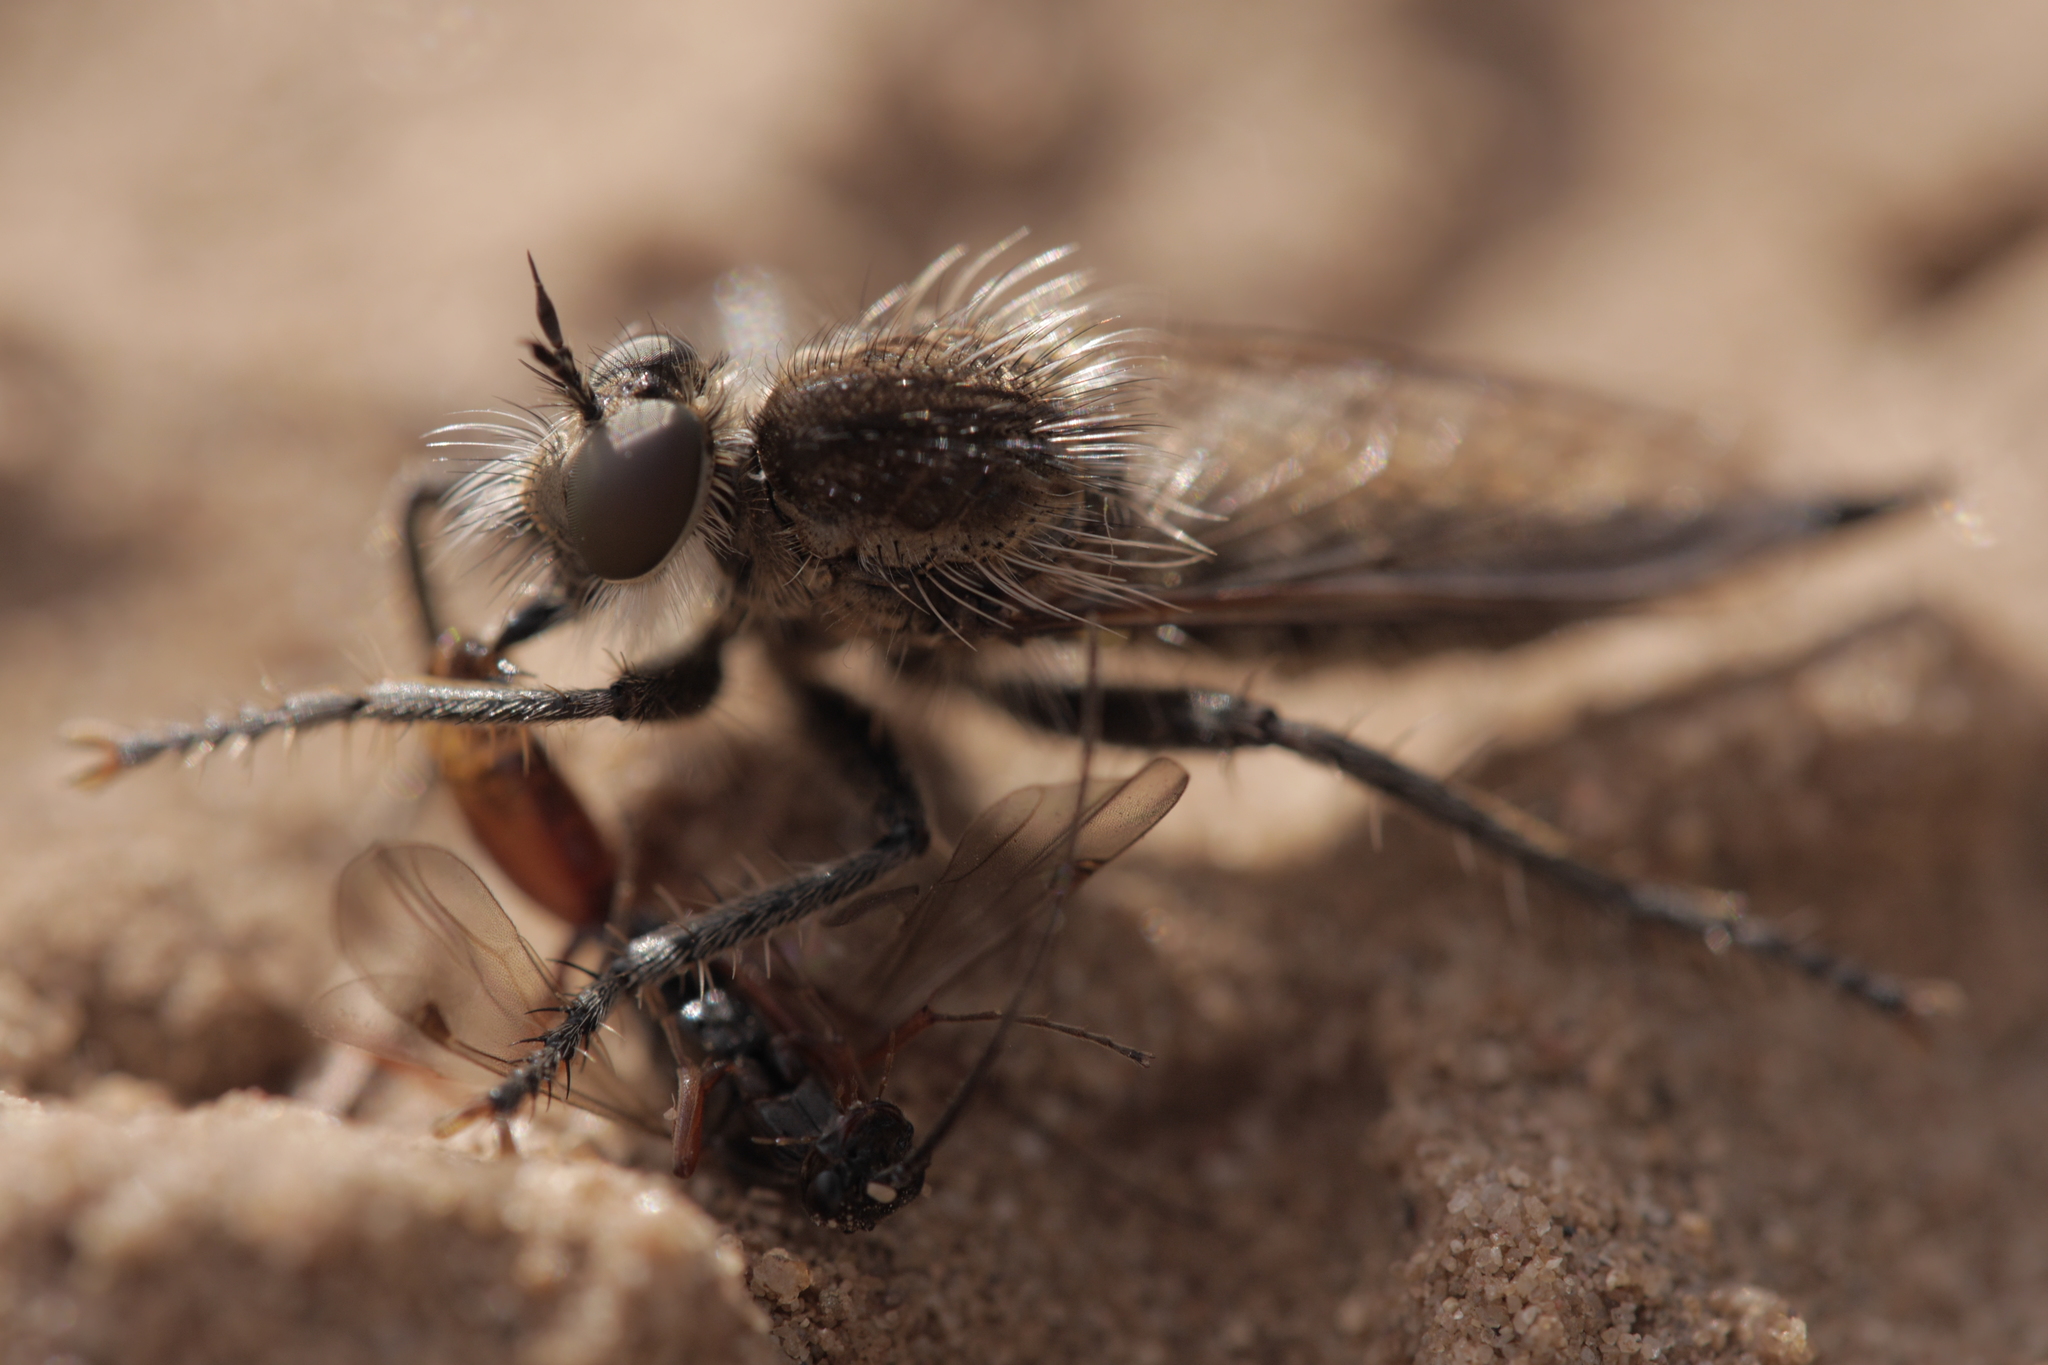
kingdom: Animalia
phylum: Arthropoda
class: Insecta
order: Diptera
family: Asilidae
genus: Dysmachus
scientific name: Dysmachus trigonus
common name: Fan-bristled robberfly
